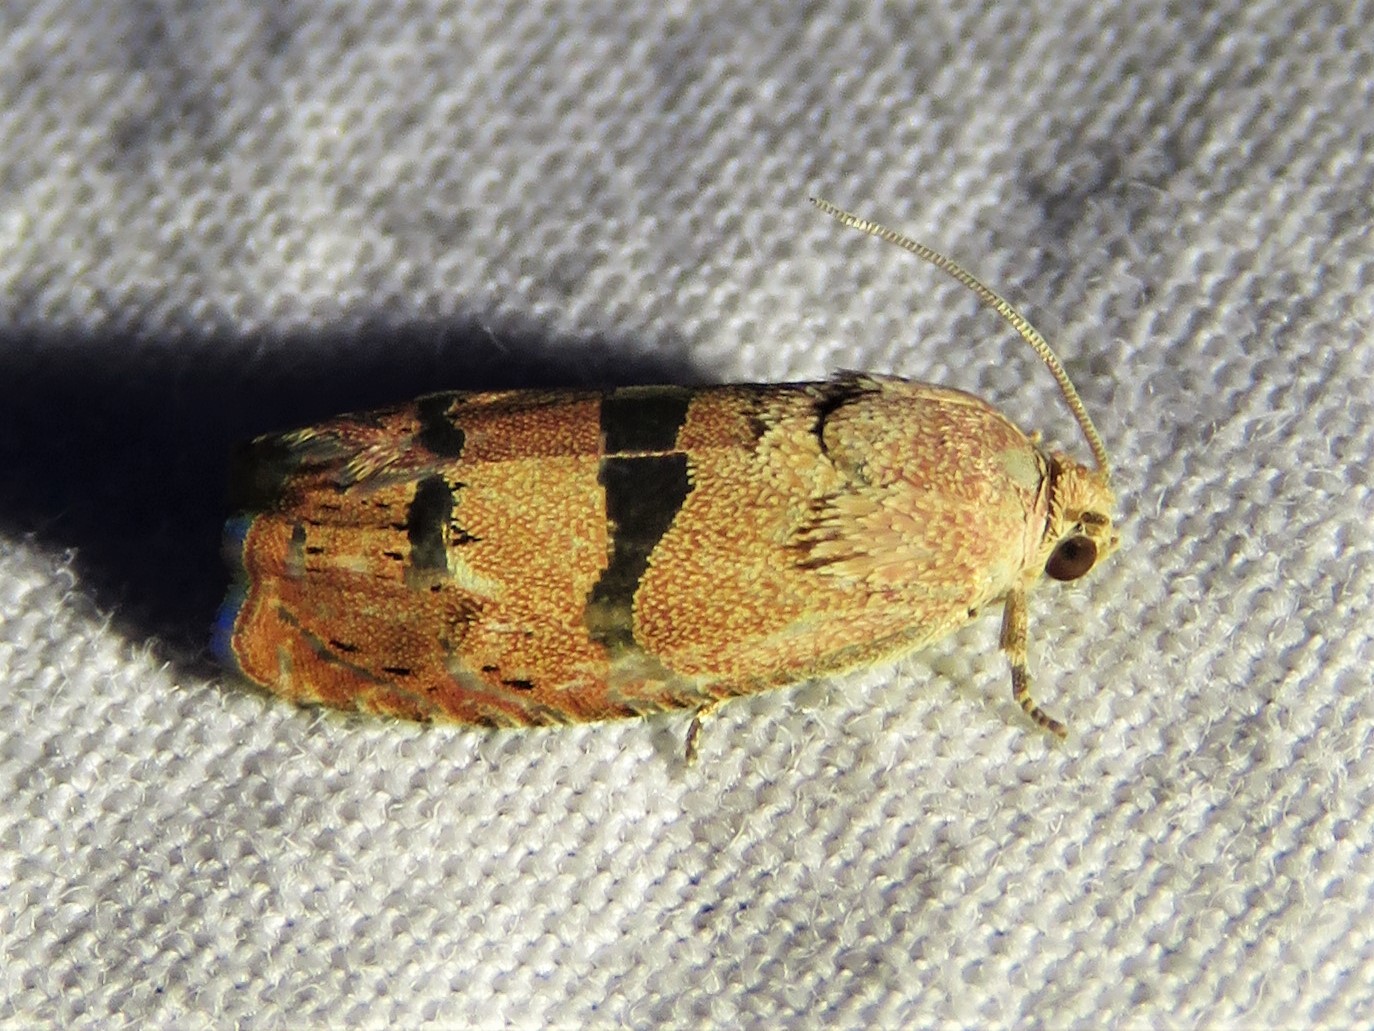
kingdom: Animalia
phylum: Arthropoda
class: Insecta
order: Lepidoptera
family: Tortricidae
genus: Cydia
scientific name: Cydia latiferreana
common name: Filbertworm moth
